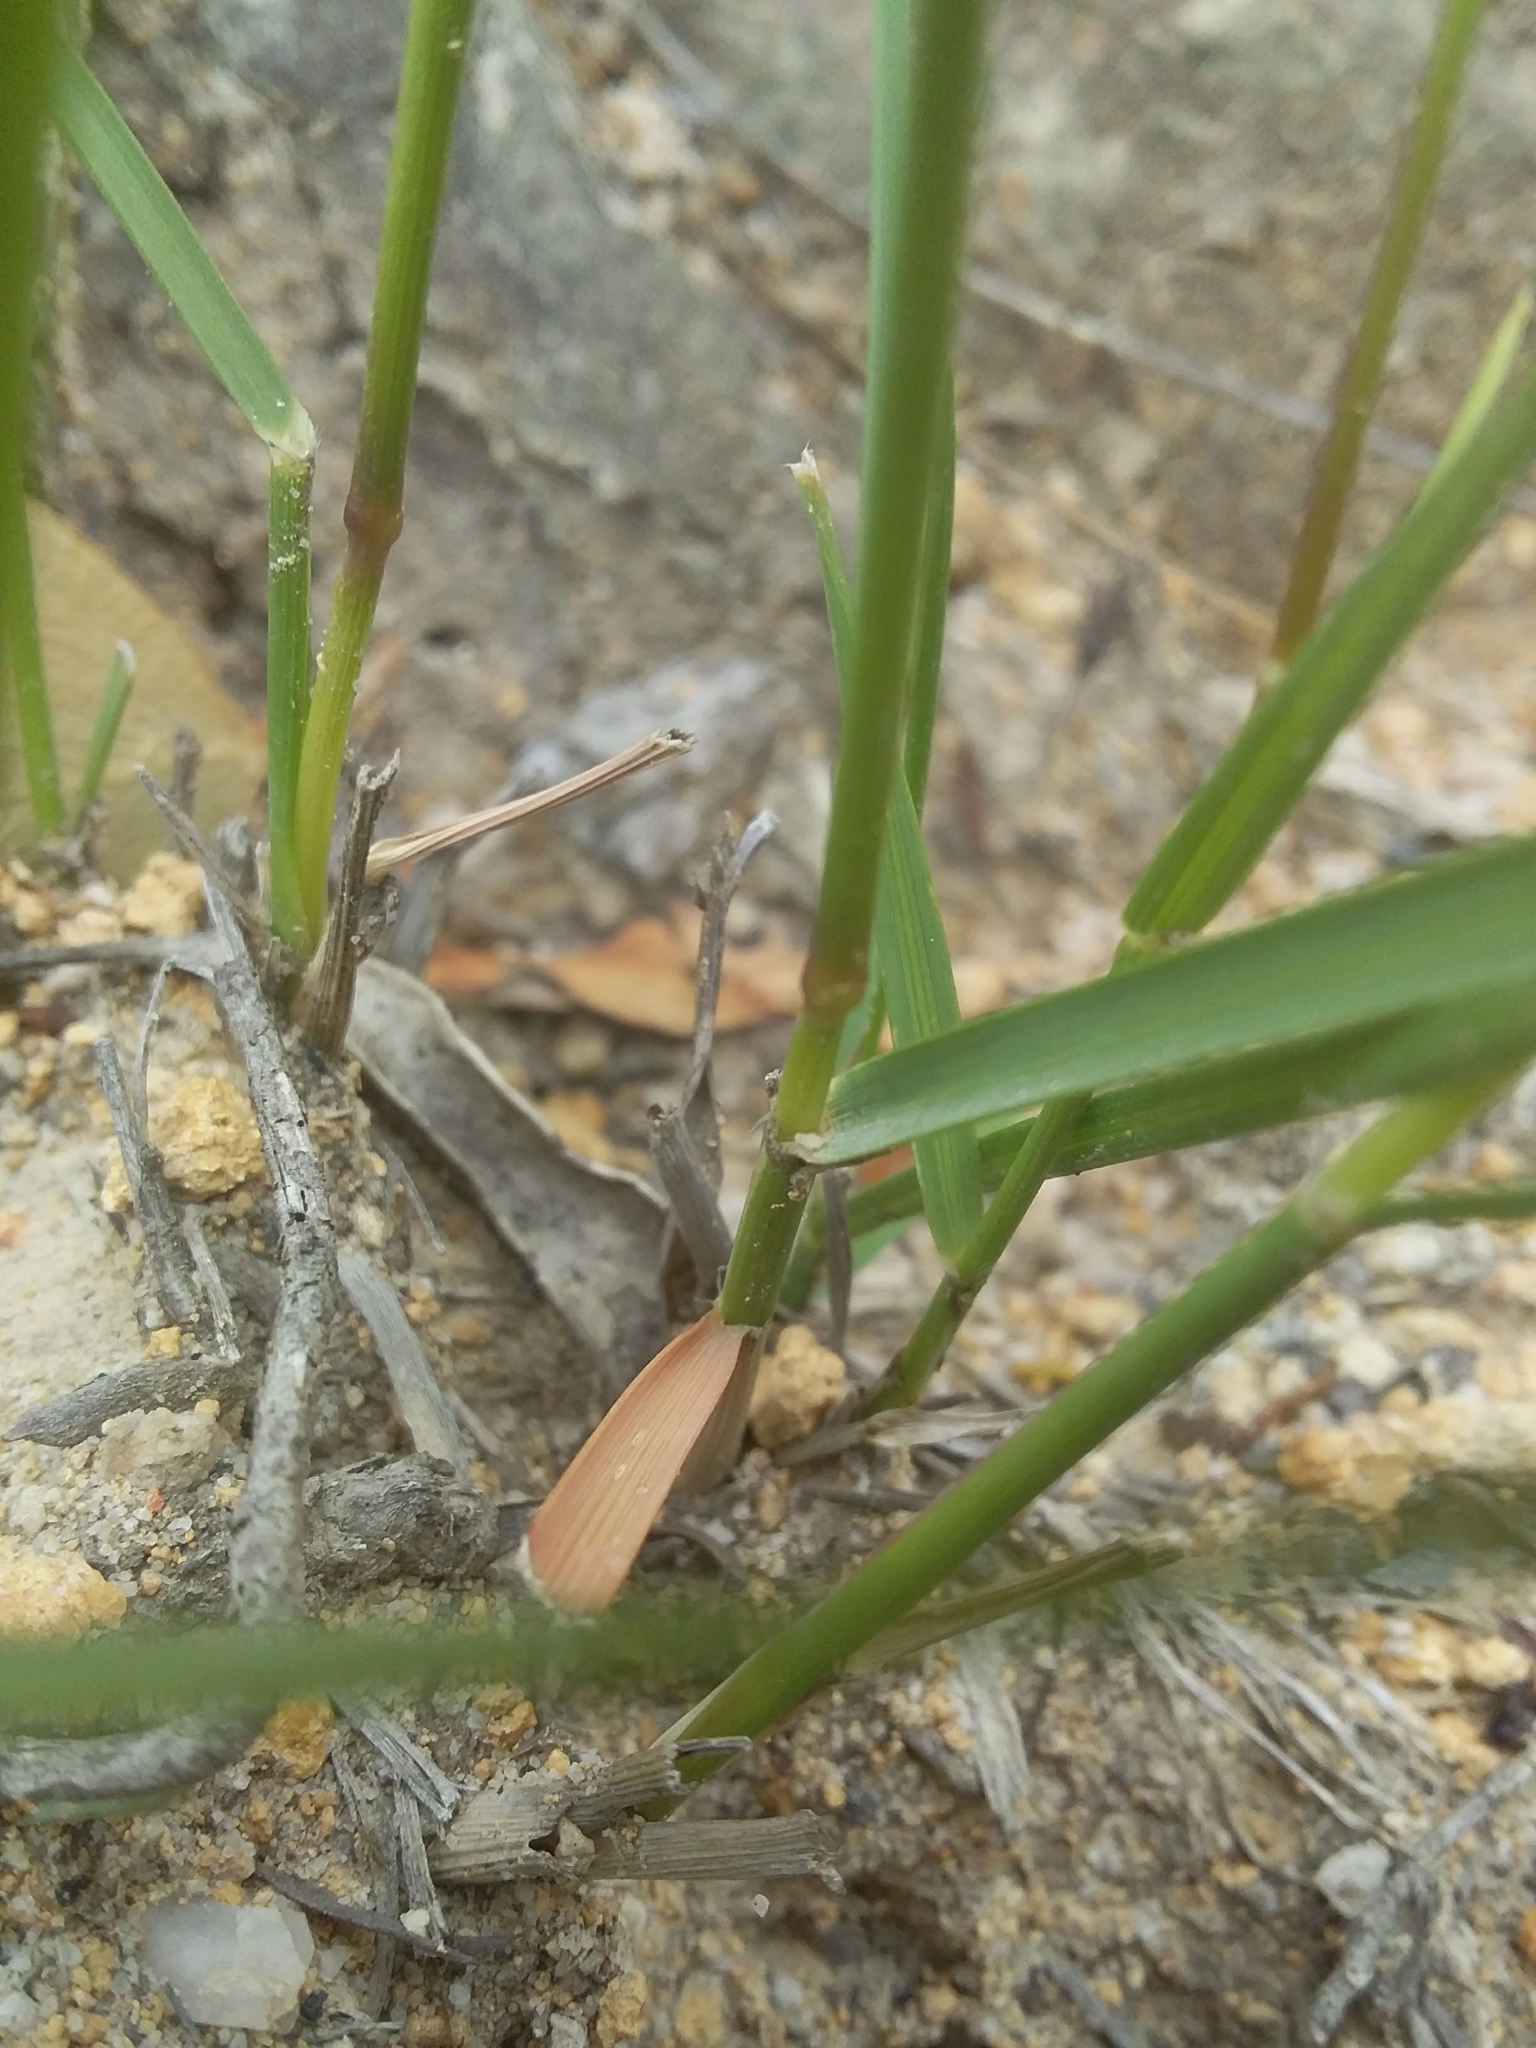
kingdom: Plantae
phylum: Tracheophyta
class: Liliopsida
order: Poales
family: Poaceae
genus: Rytidosperma
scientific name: Rytidosperma clelandii
